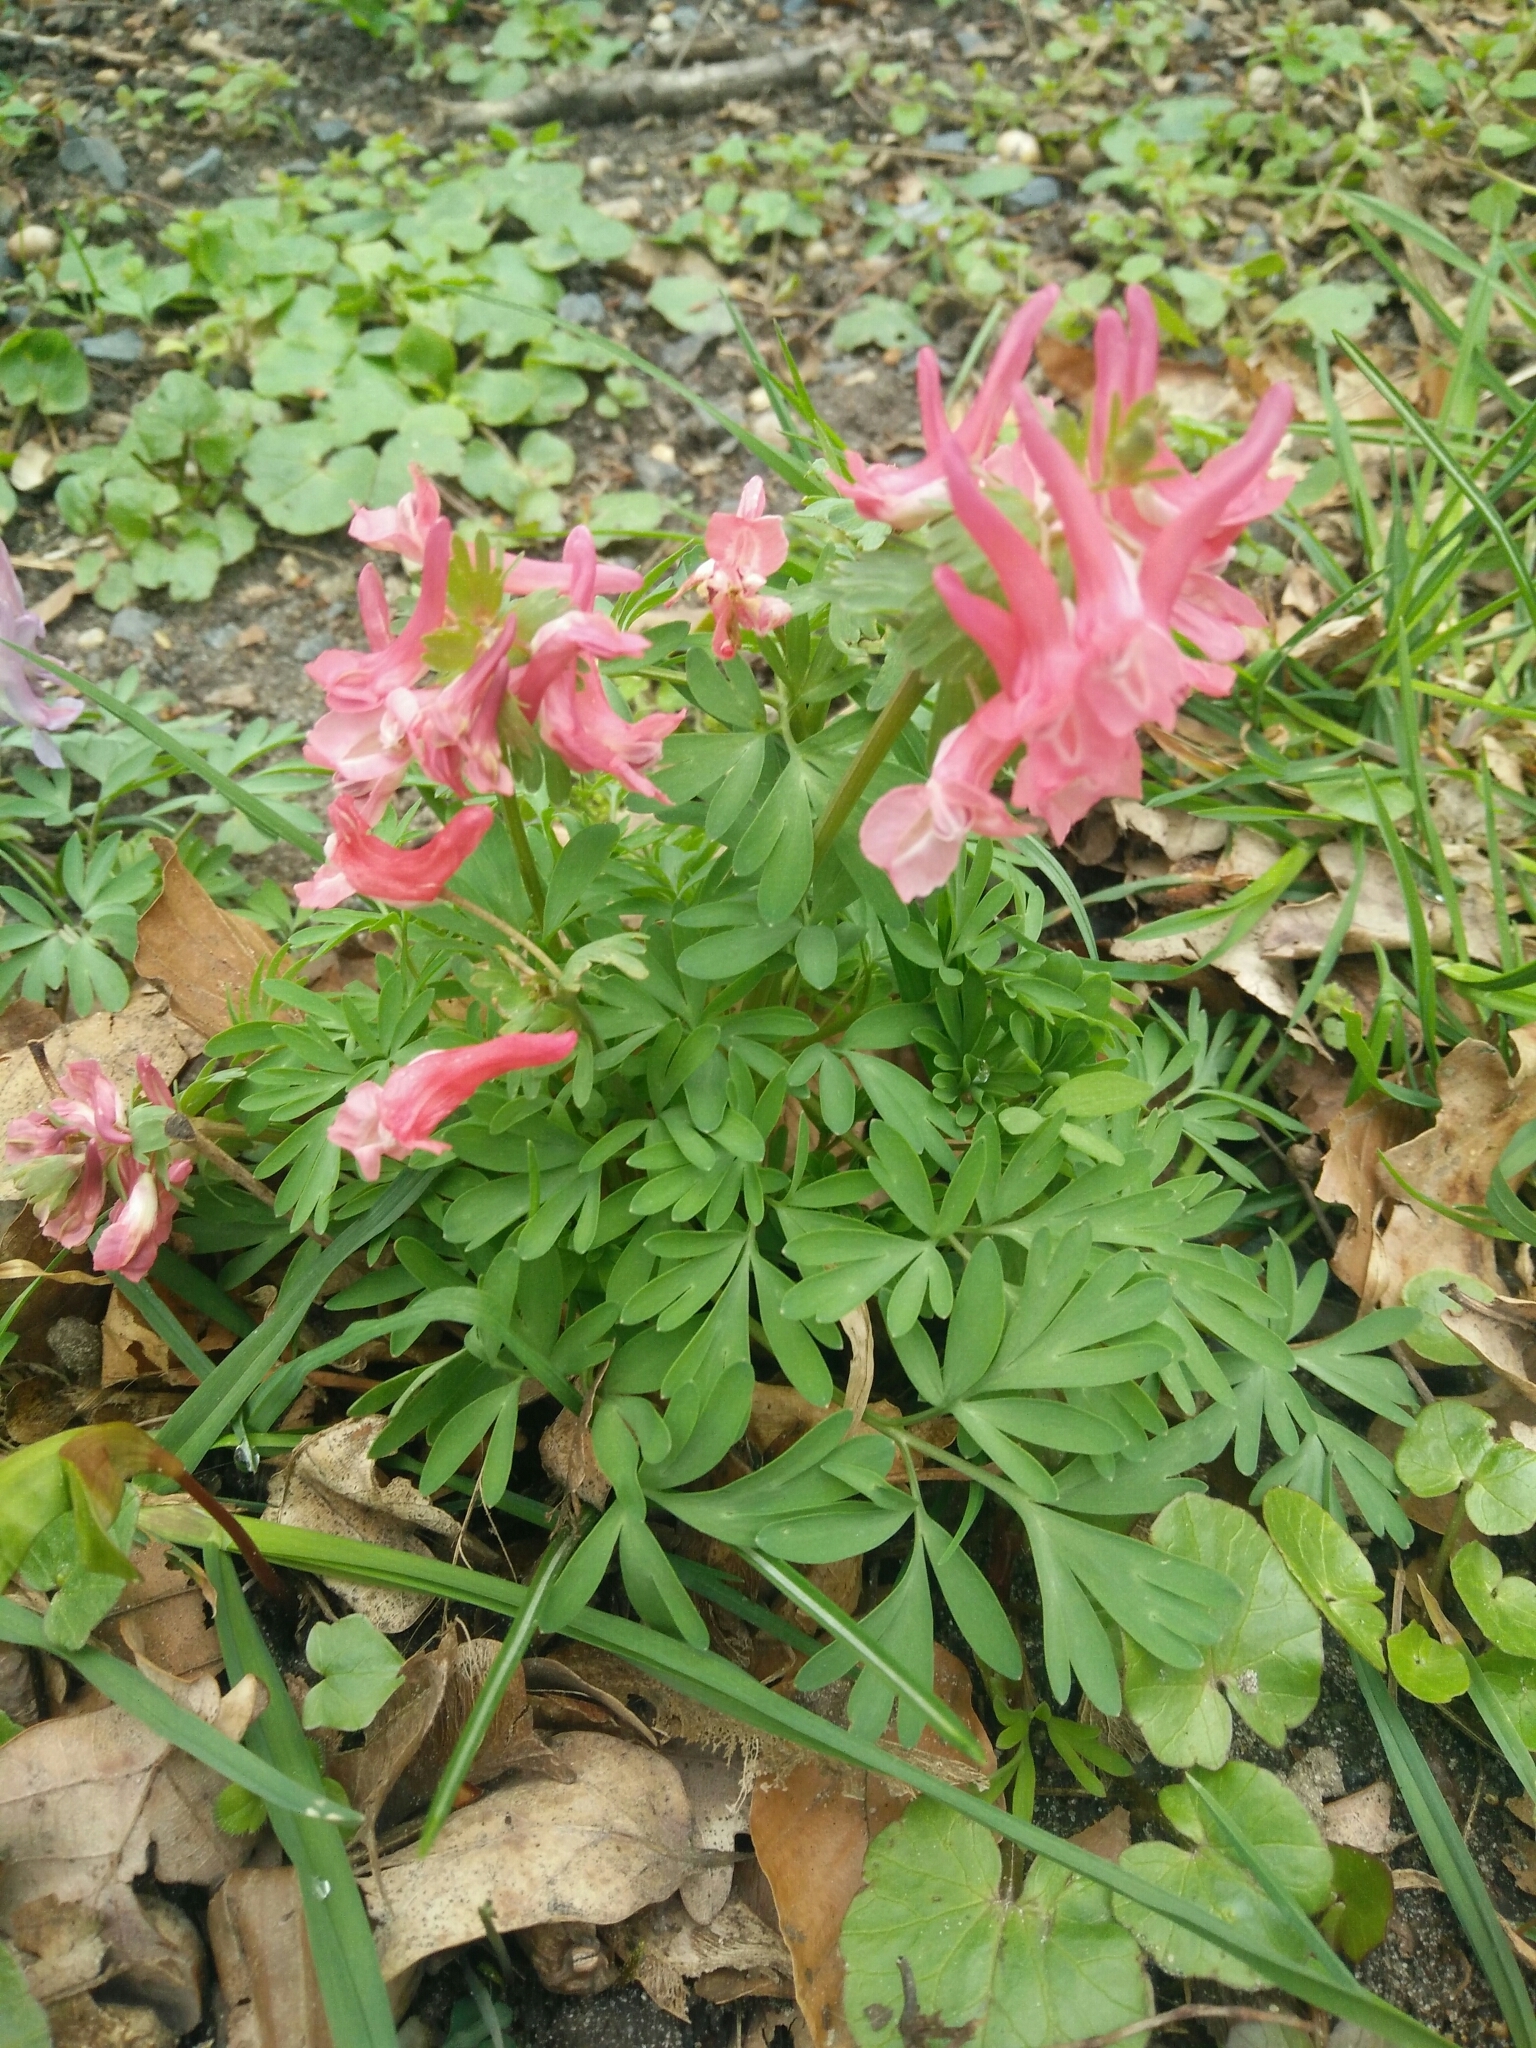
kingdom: Plantae
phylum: Tracheophyta
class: Magnoliopsida
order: Ranunculales
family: Papaveraceae
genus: Corydalis
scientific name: Corydalis solida
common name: Bird-in-a-bush
